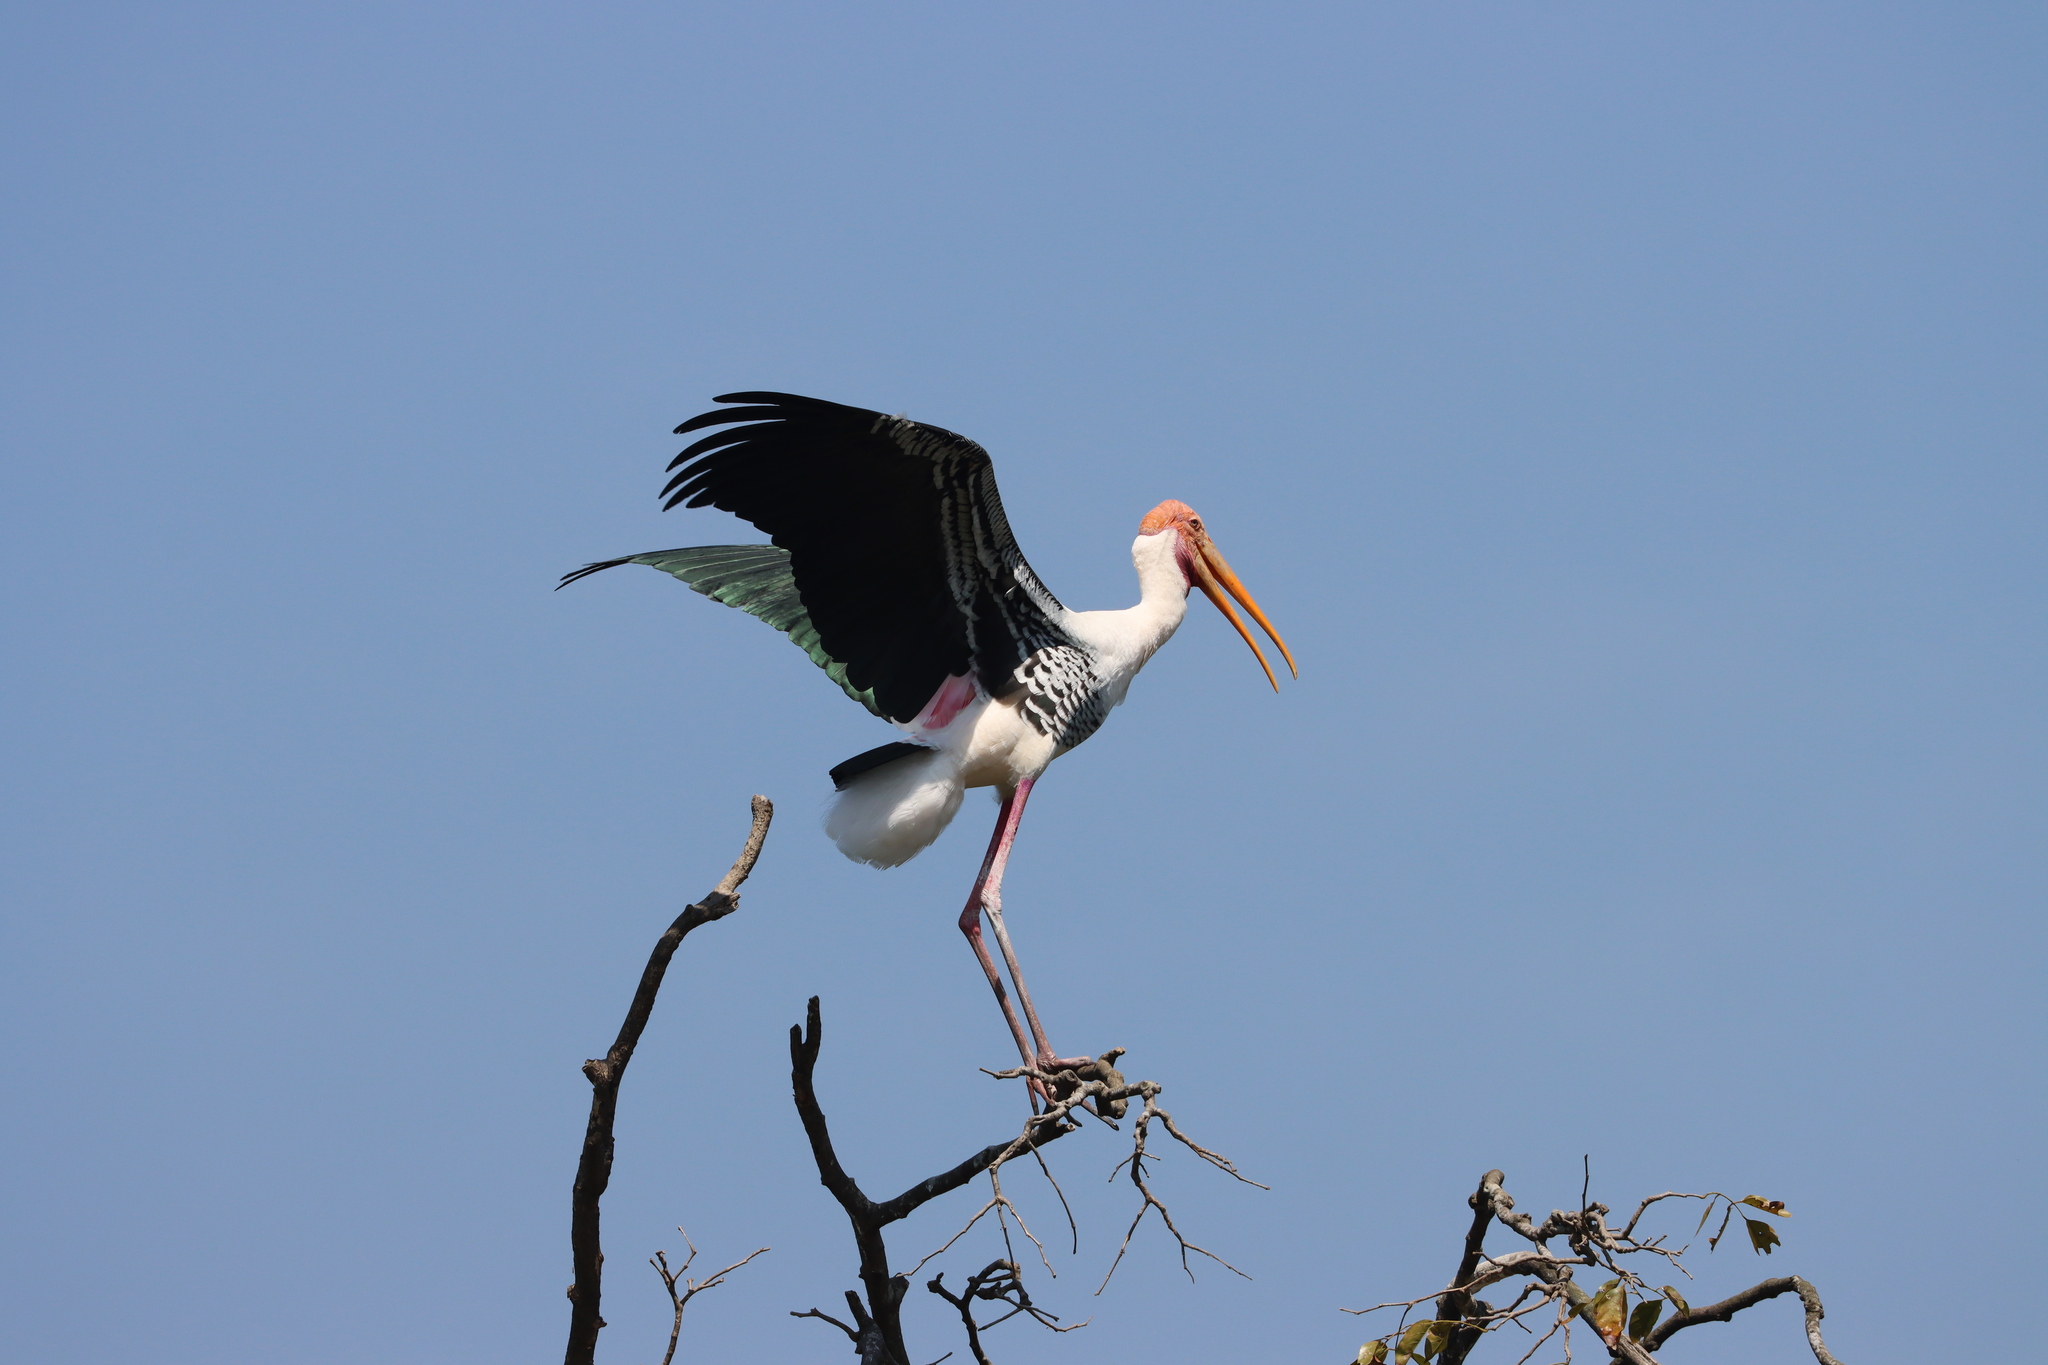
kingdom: Animalia
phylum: Chordata
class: Aves
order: Ciconiiformes
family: Ciconiidae
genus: Mycteria
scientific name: Mycteria leucocephala
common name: Painted stork
